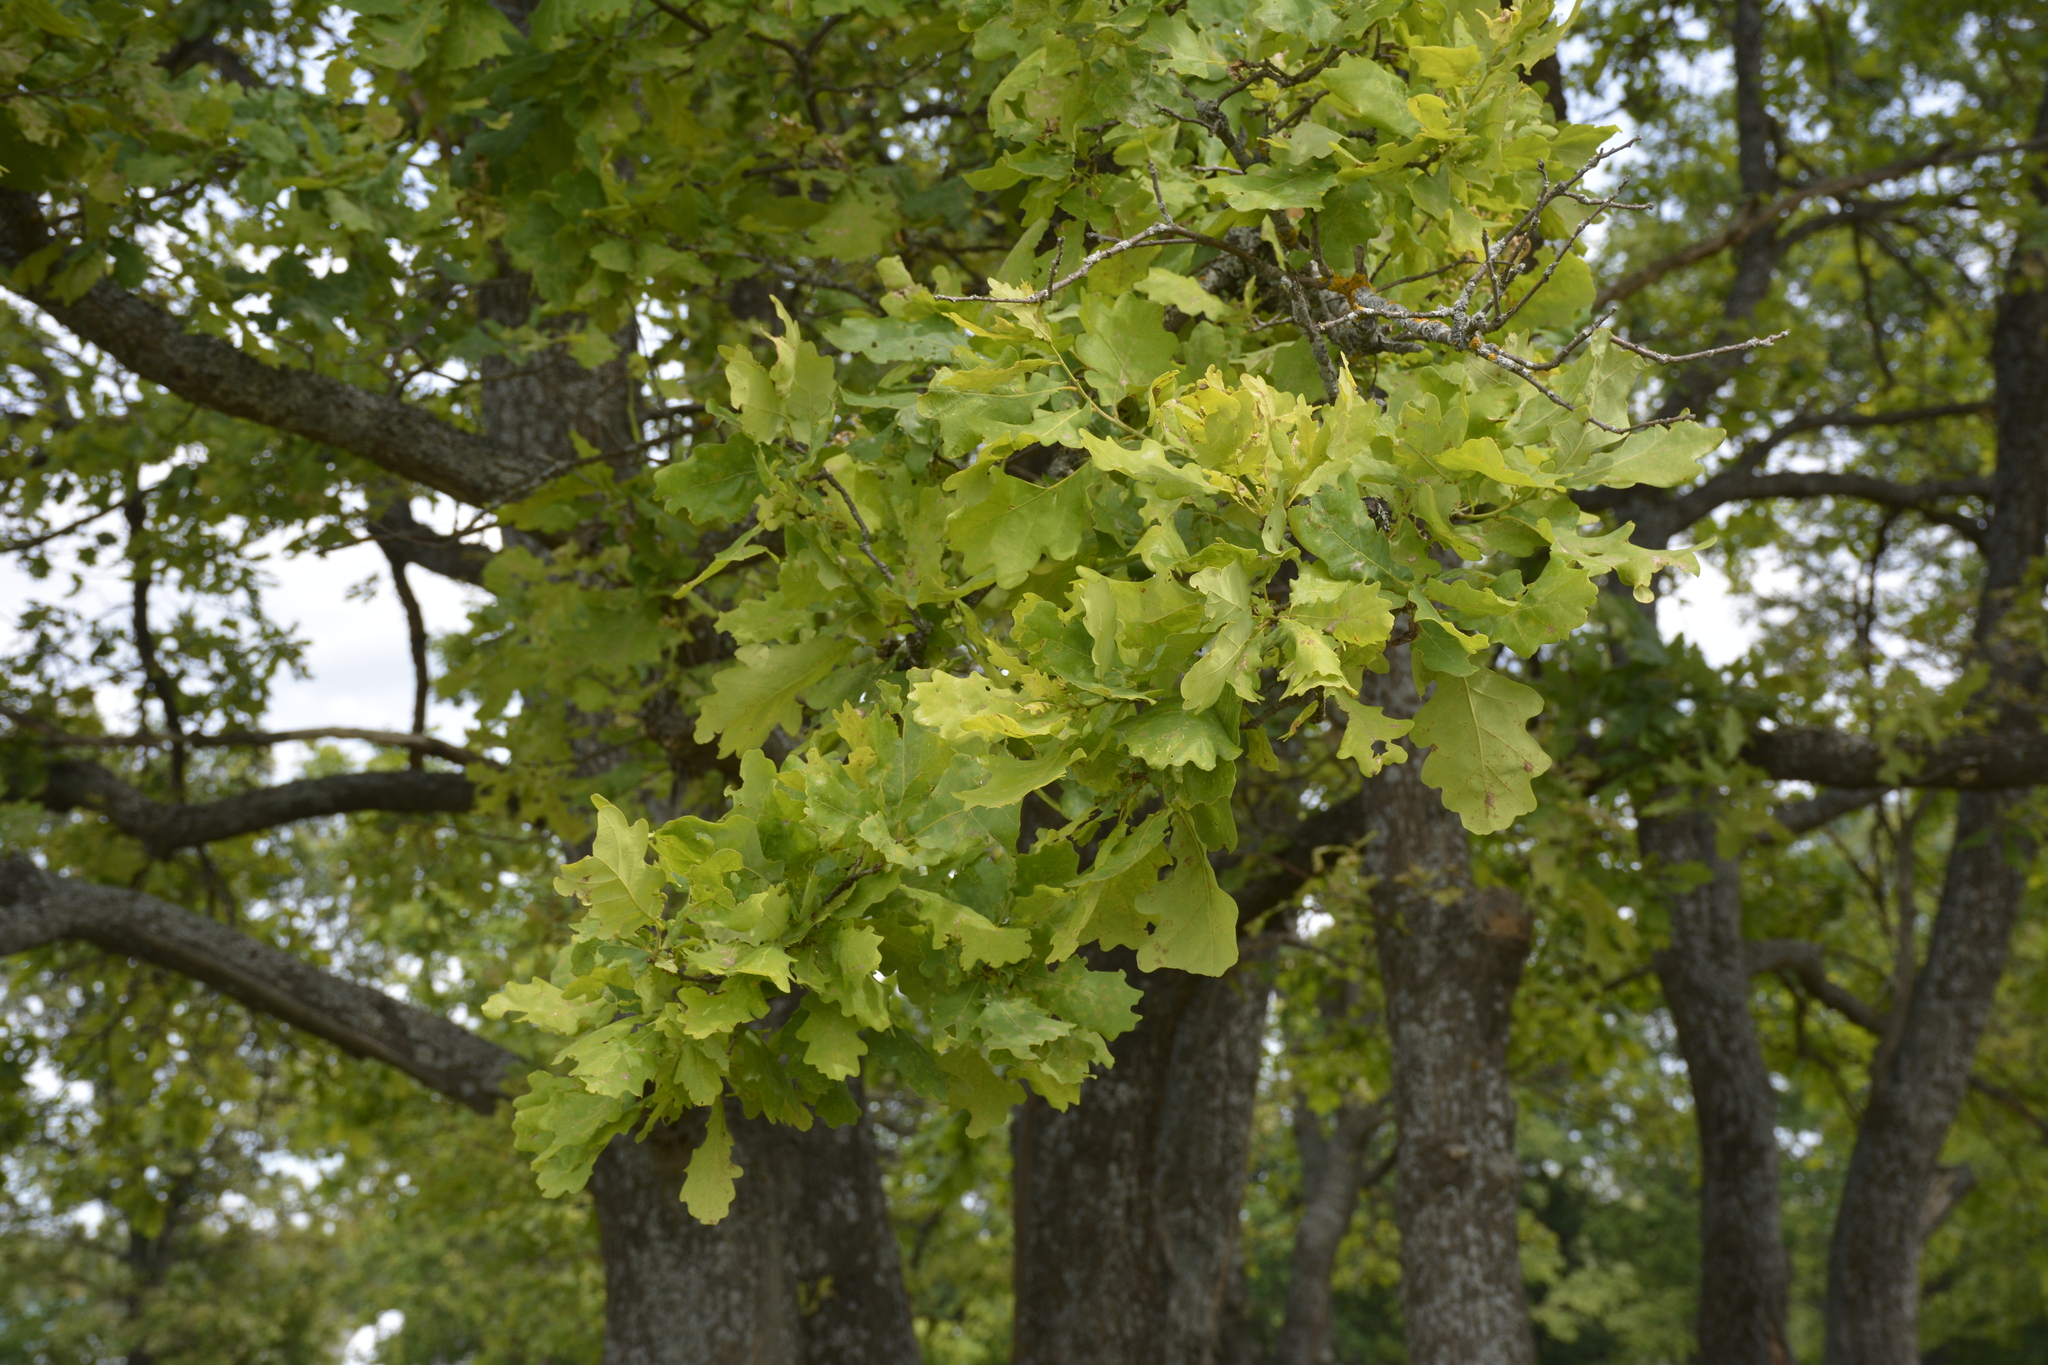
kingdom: Plantae
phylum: Tracheophyta
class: Magnoliopsida
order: Fagales
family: Fagaceae
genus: Quercus
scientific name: Quercus robur
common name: Pedunculate oak
